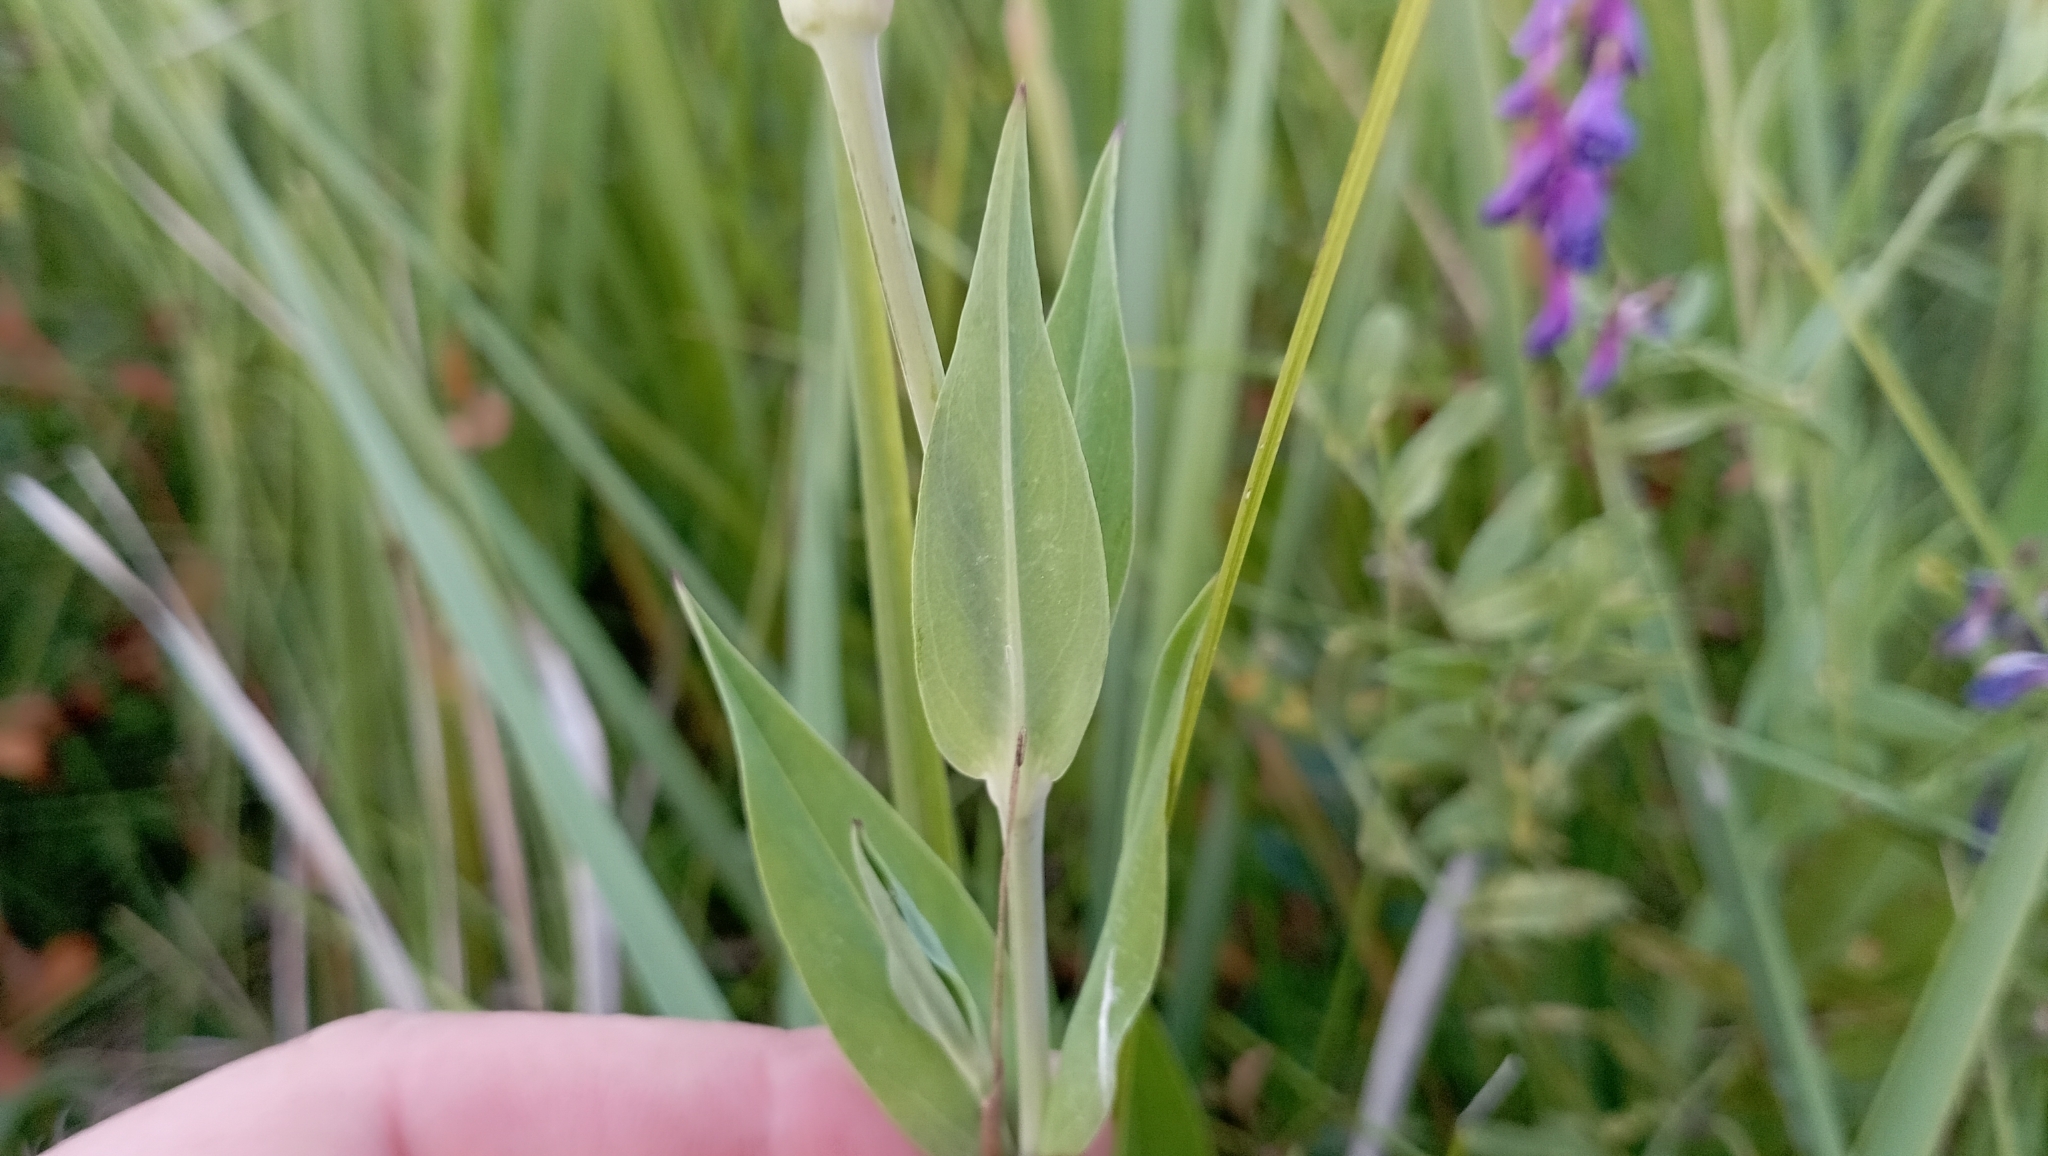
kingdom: Plantae
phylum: Tracheophyta
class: Magnoliopsida
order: Caryophyllales
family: Caryophyllaceae
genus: Silene
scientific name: Silene vulgaris
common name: Bladder campion
